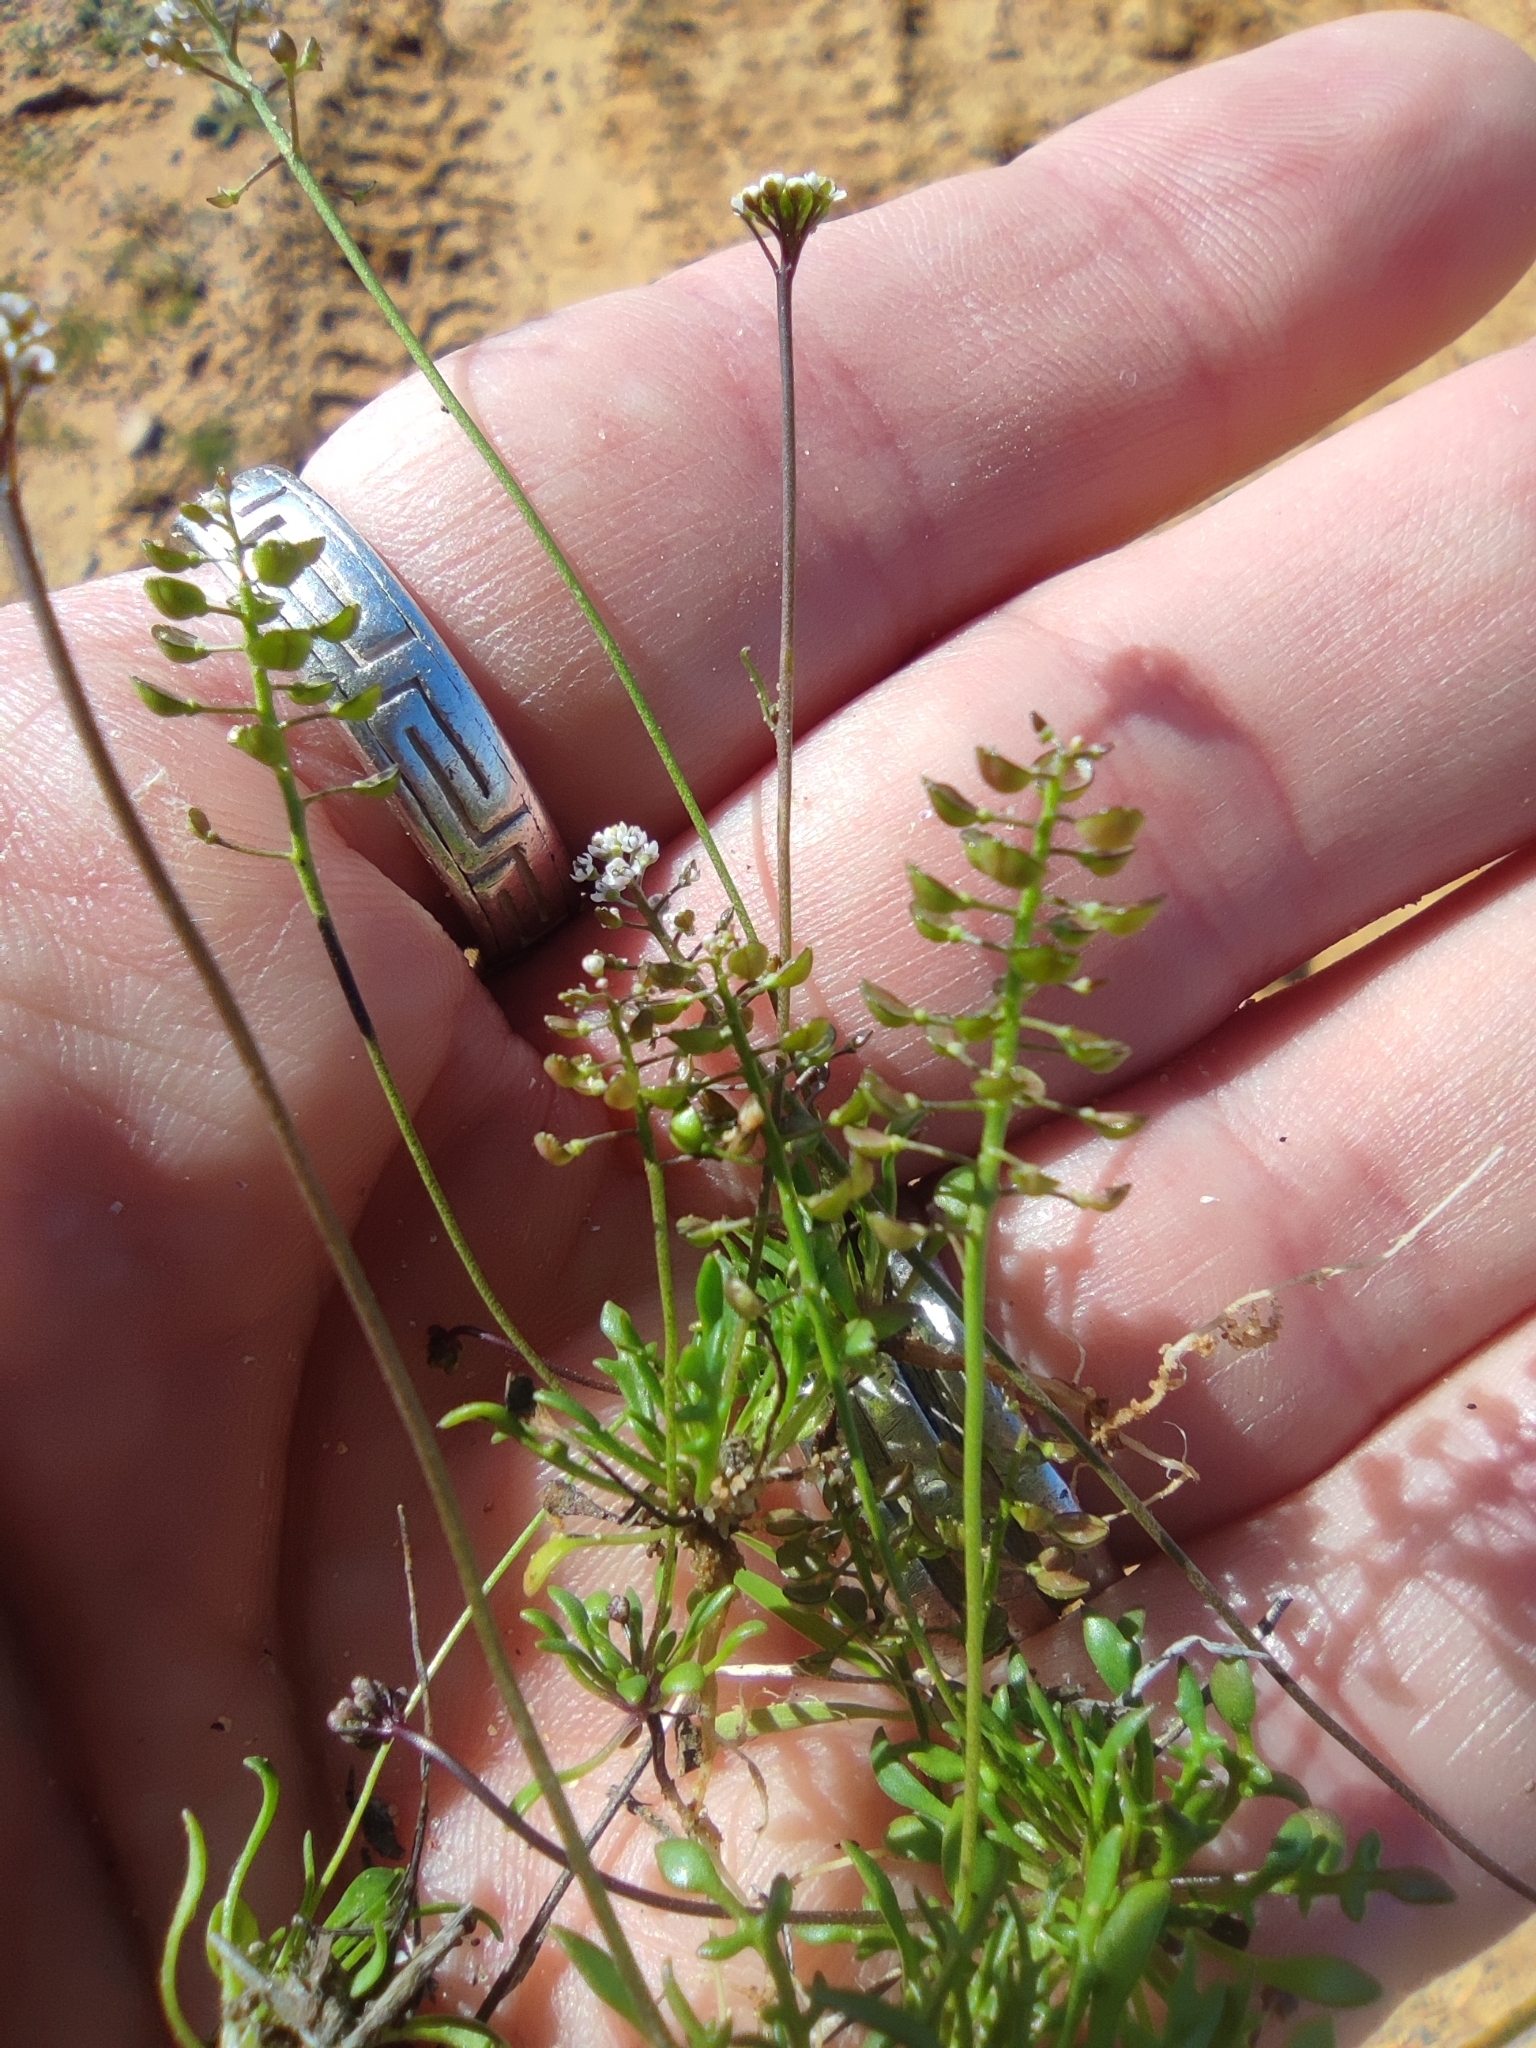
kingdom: Plantae
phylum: Tracheophyta
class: Magnoliopsida
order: Brassicales
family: Brassicaceae
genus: Teesdalia
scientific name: Teesdalia coronopifolia
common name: Lesser shepherdscress
